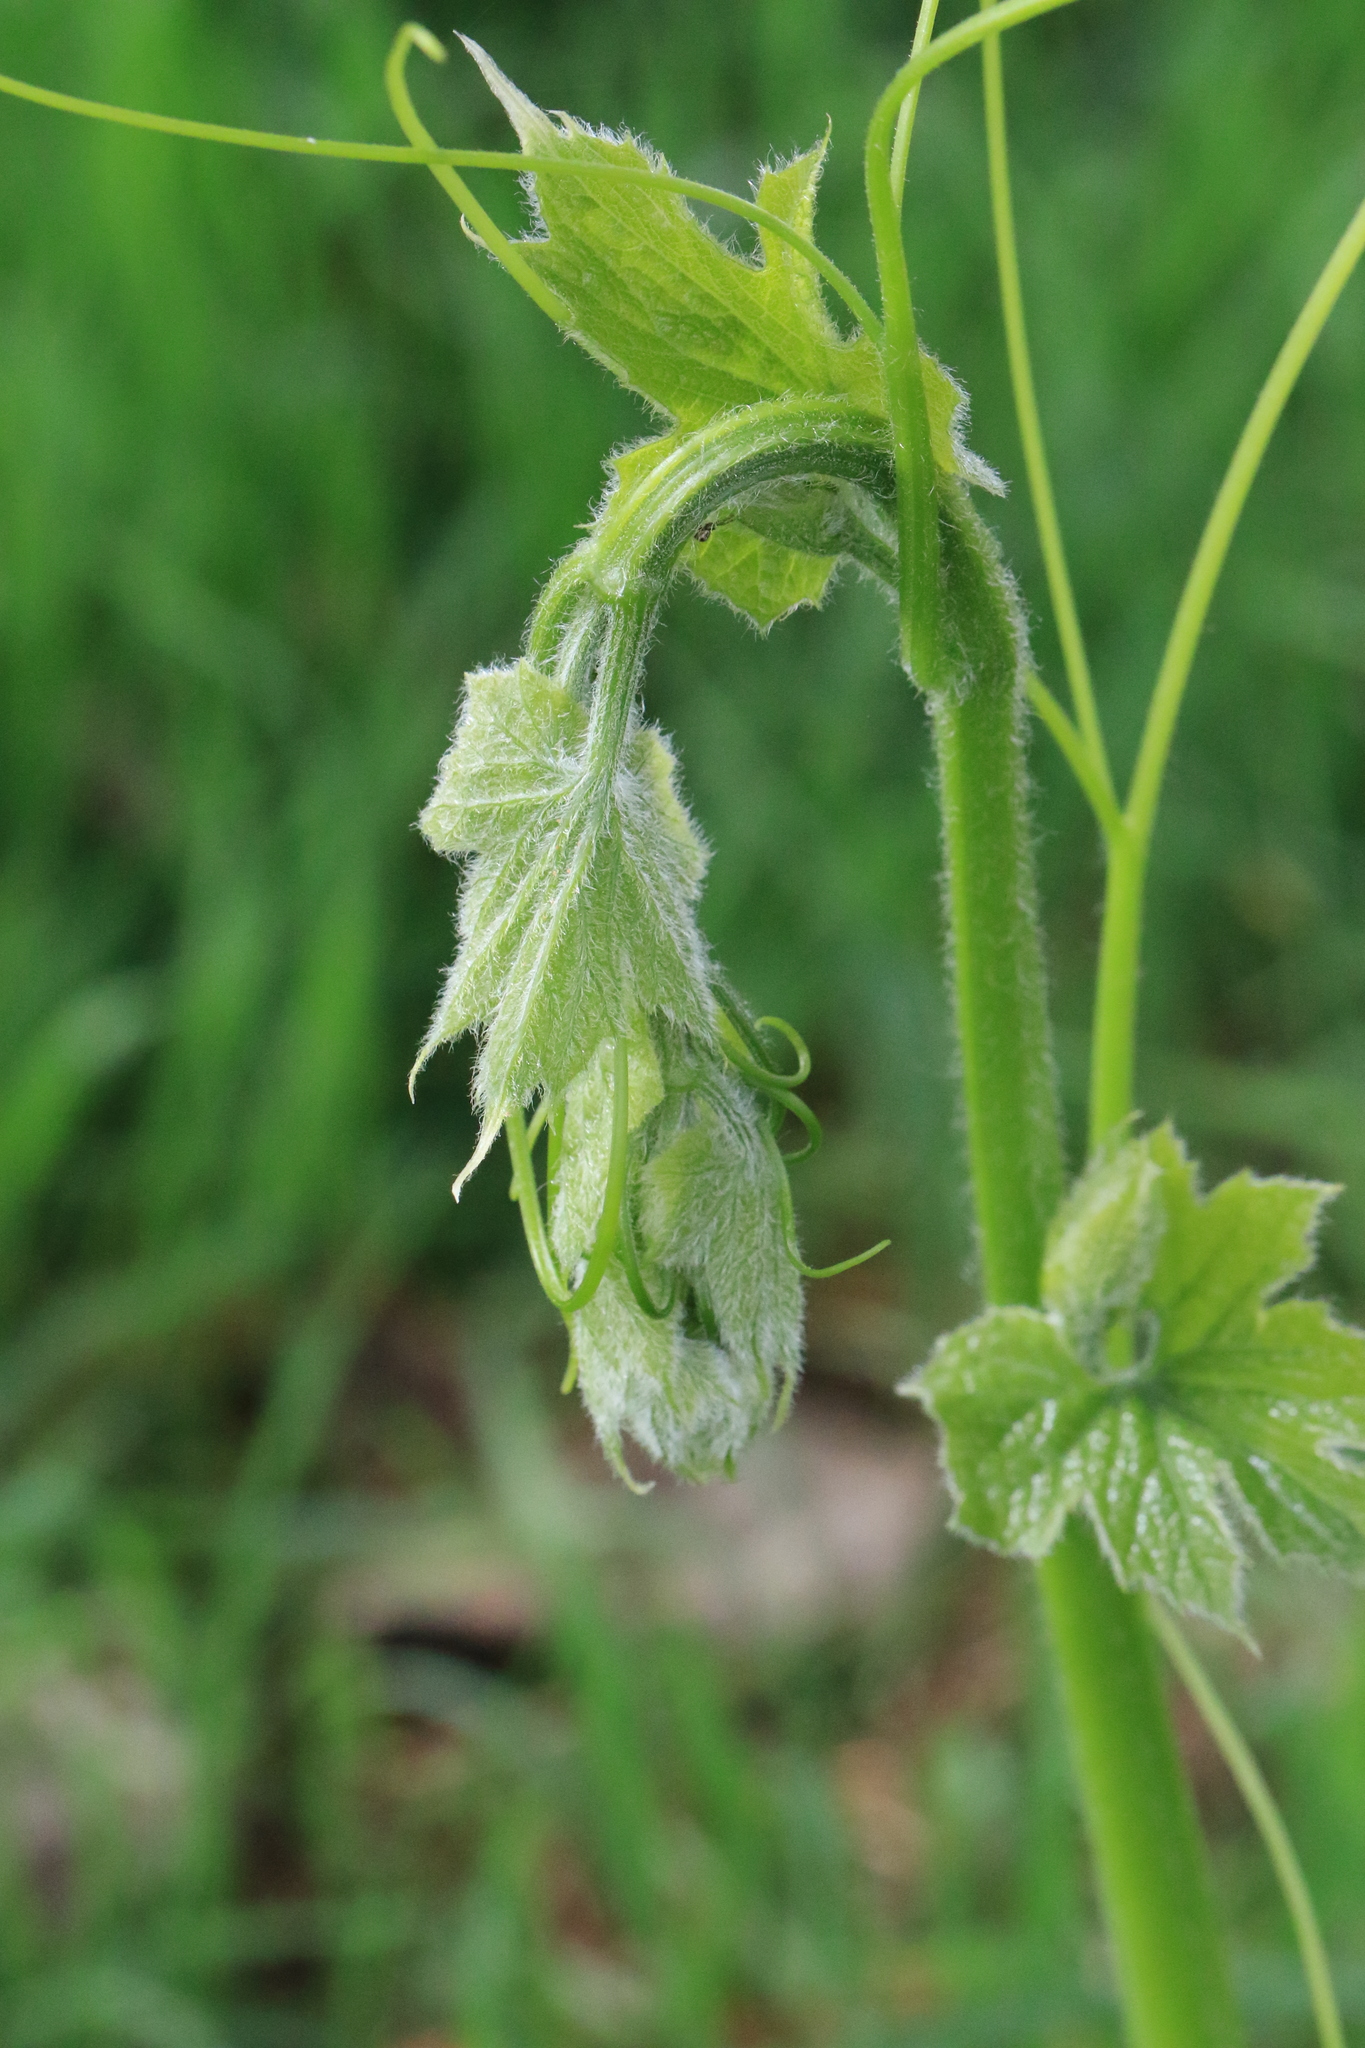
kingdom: Plantae
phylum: Tracheophyta
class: Magnoliopsida
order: Cucurbitales
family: Cucurbitaceae
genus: Marah
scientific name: Marah oregana
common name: Coastal manroot
